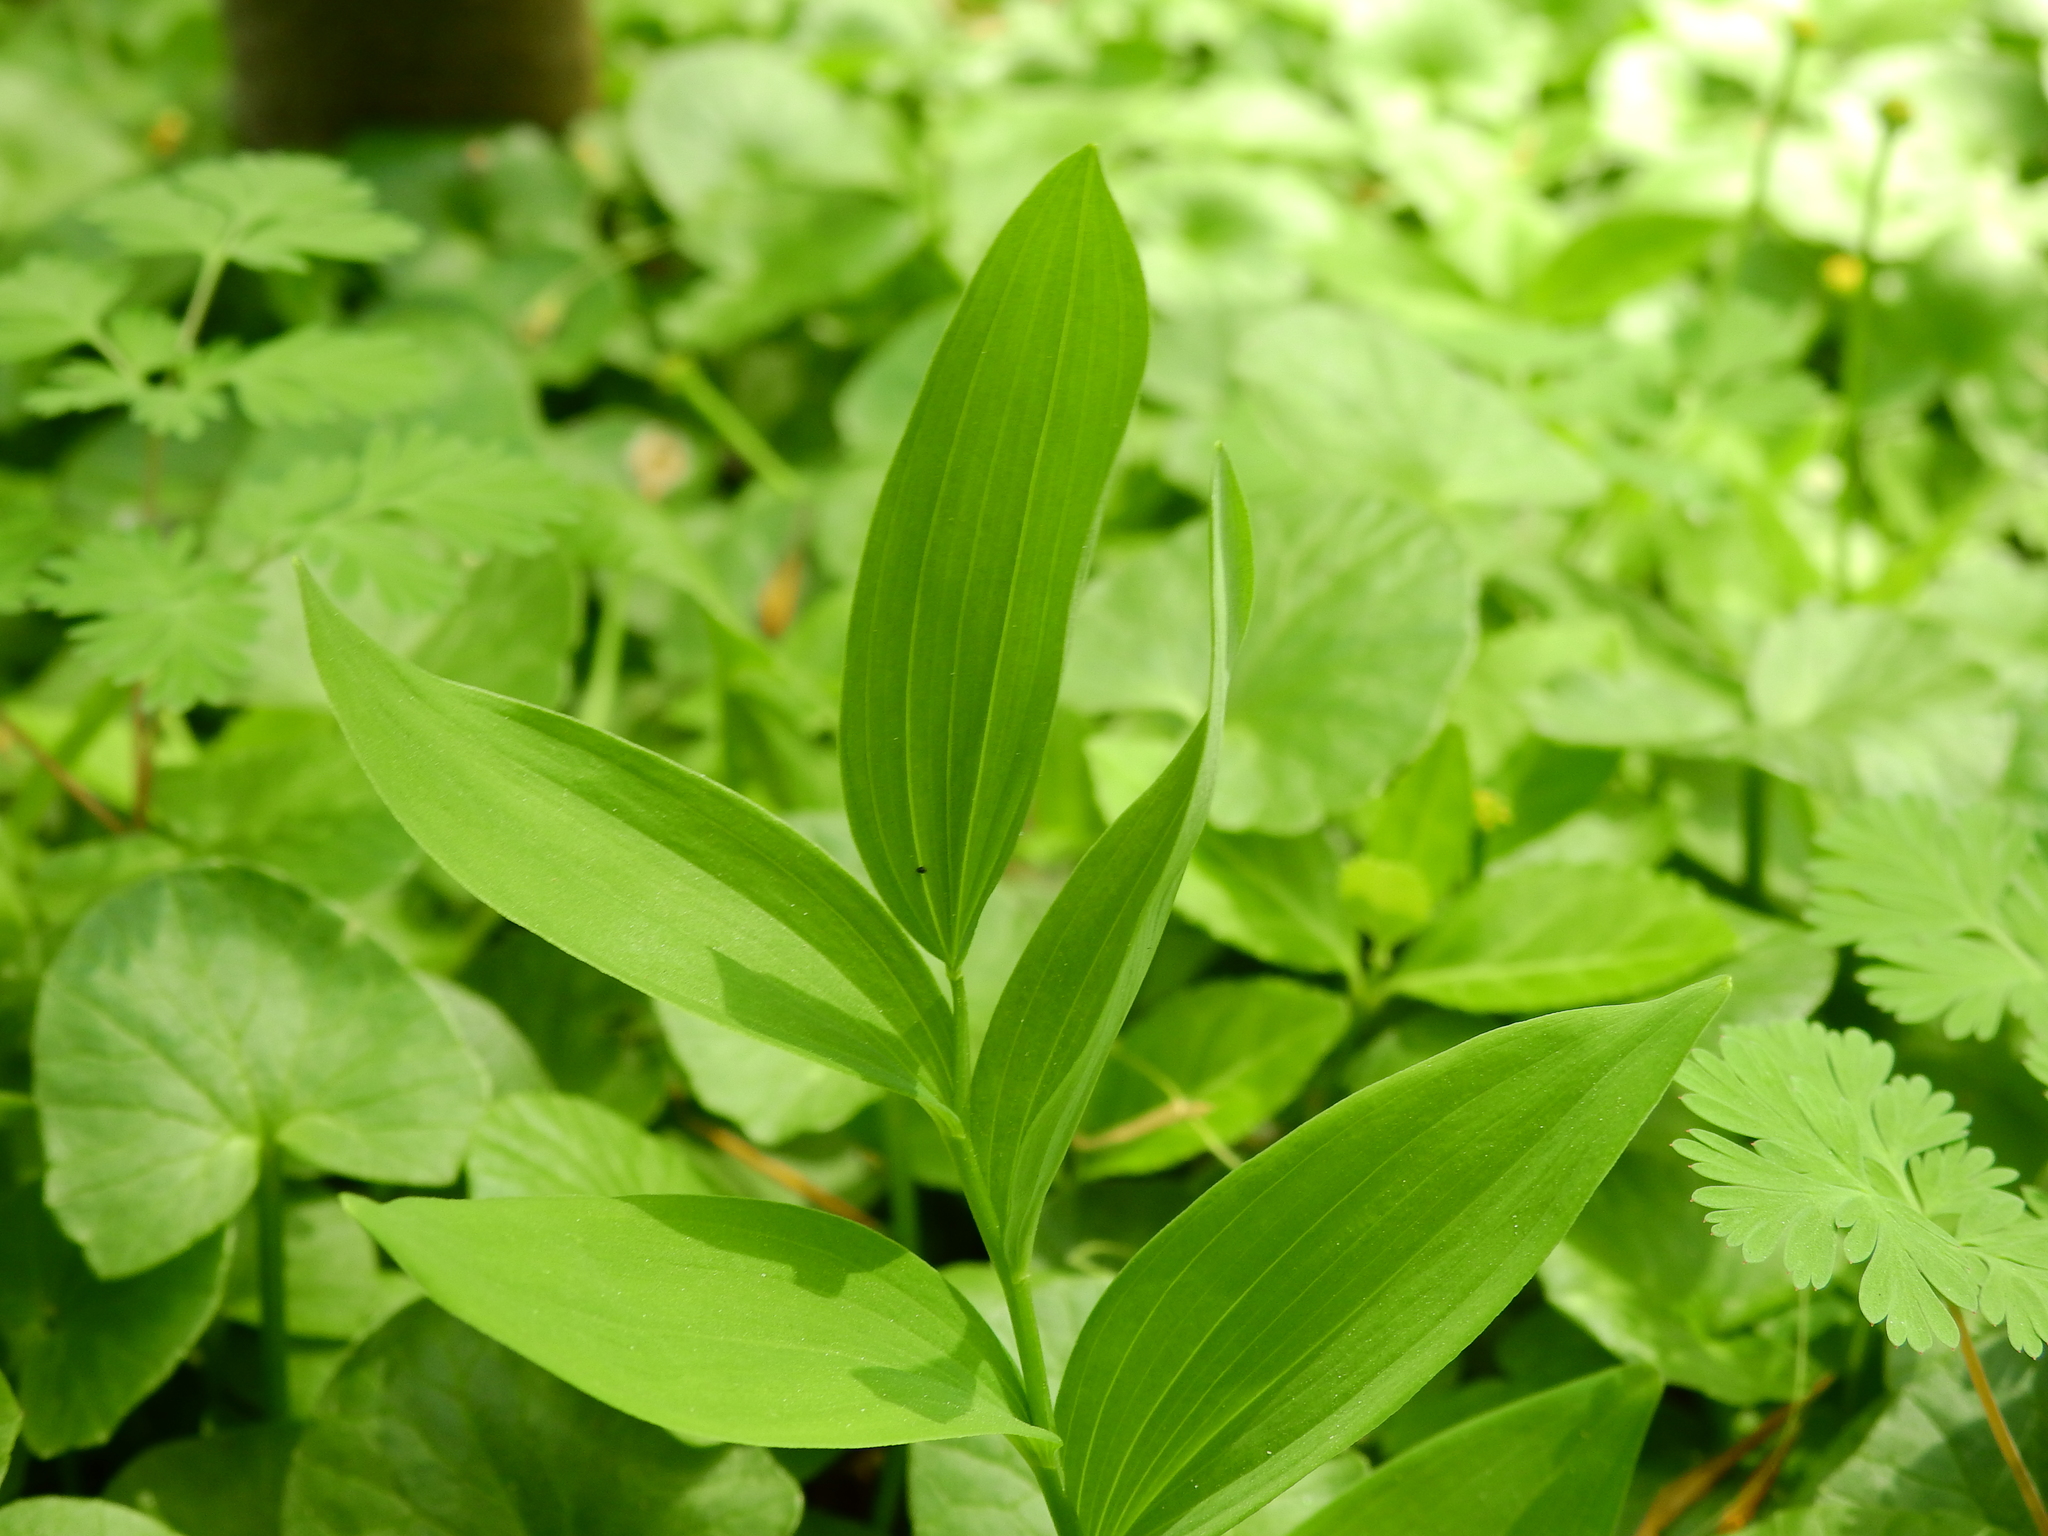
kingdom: Plantae
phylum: Tracheophyta
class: Liliopsida
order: Asparagales
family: Asparagaceae
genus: Polygonatum
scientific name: Polygonatum biflorum
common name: American solomon's-seal
